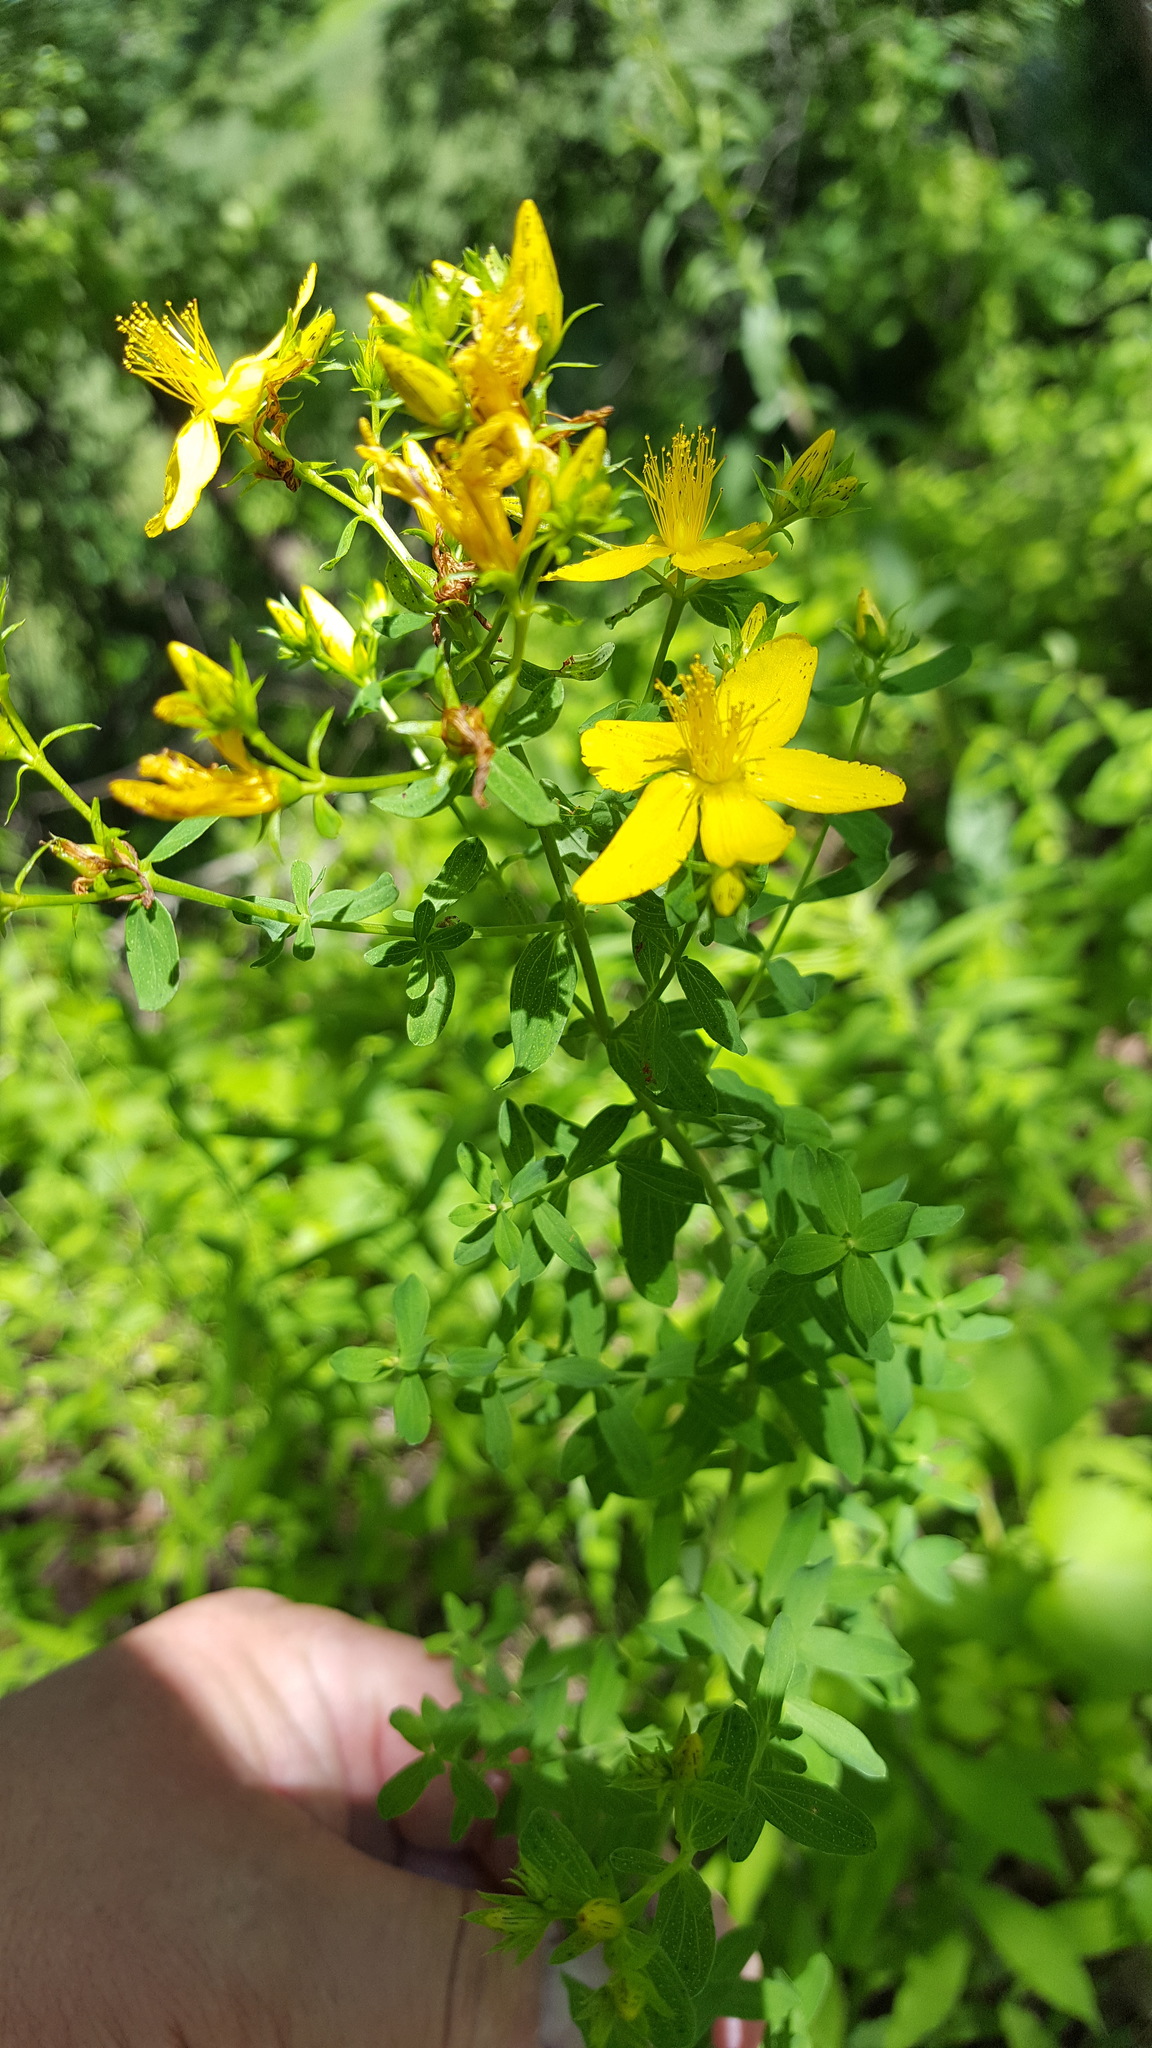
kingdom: Plantae
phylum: Tracheophyta
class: Magnoliopsida
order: Malpighiales
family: Hypericaceae
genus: Hypericum
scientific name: Hypericum perforatum
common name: Common st. johnswort
